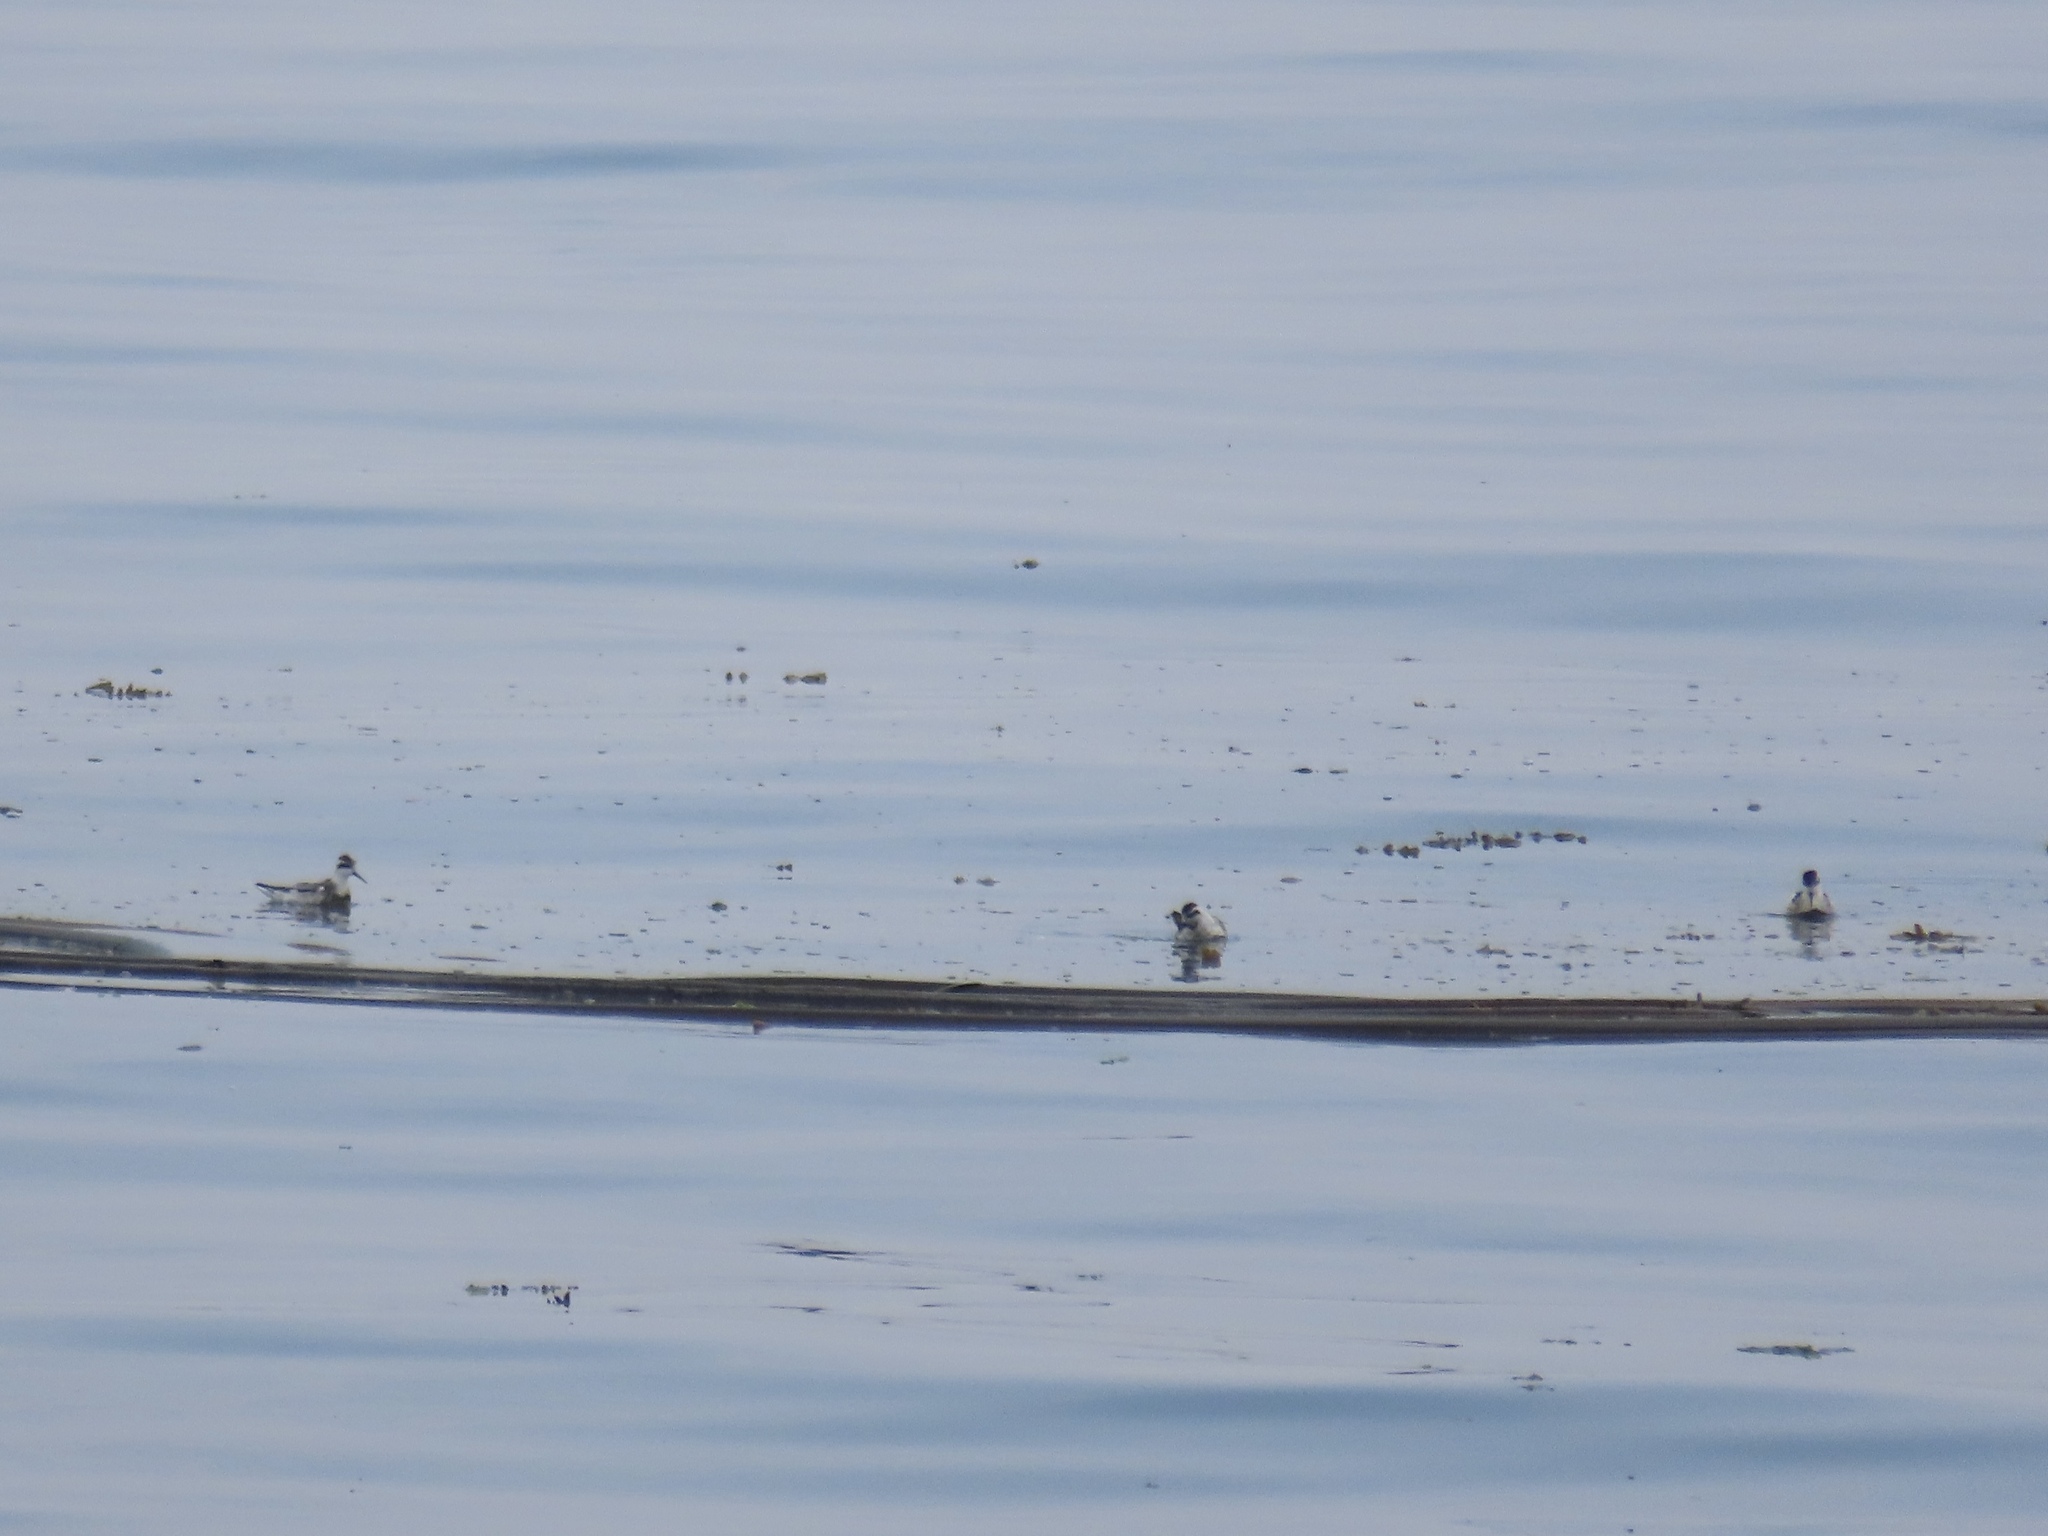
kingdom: Animalia
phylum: Chordata
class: Aves
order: Charadriiformes
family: Scolopacidae
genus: Phalaropus
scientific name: Phalaropus lobatus
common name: Red-necked phalarope
